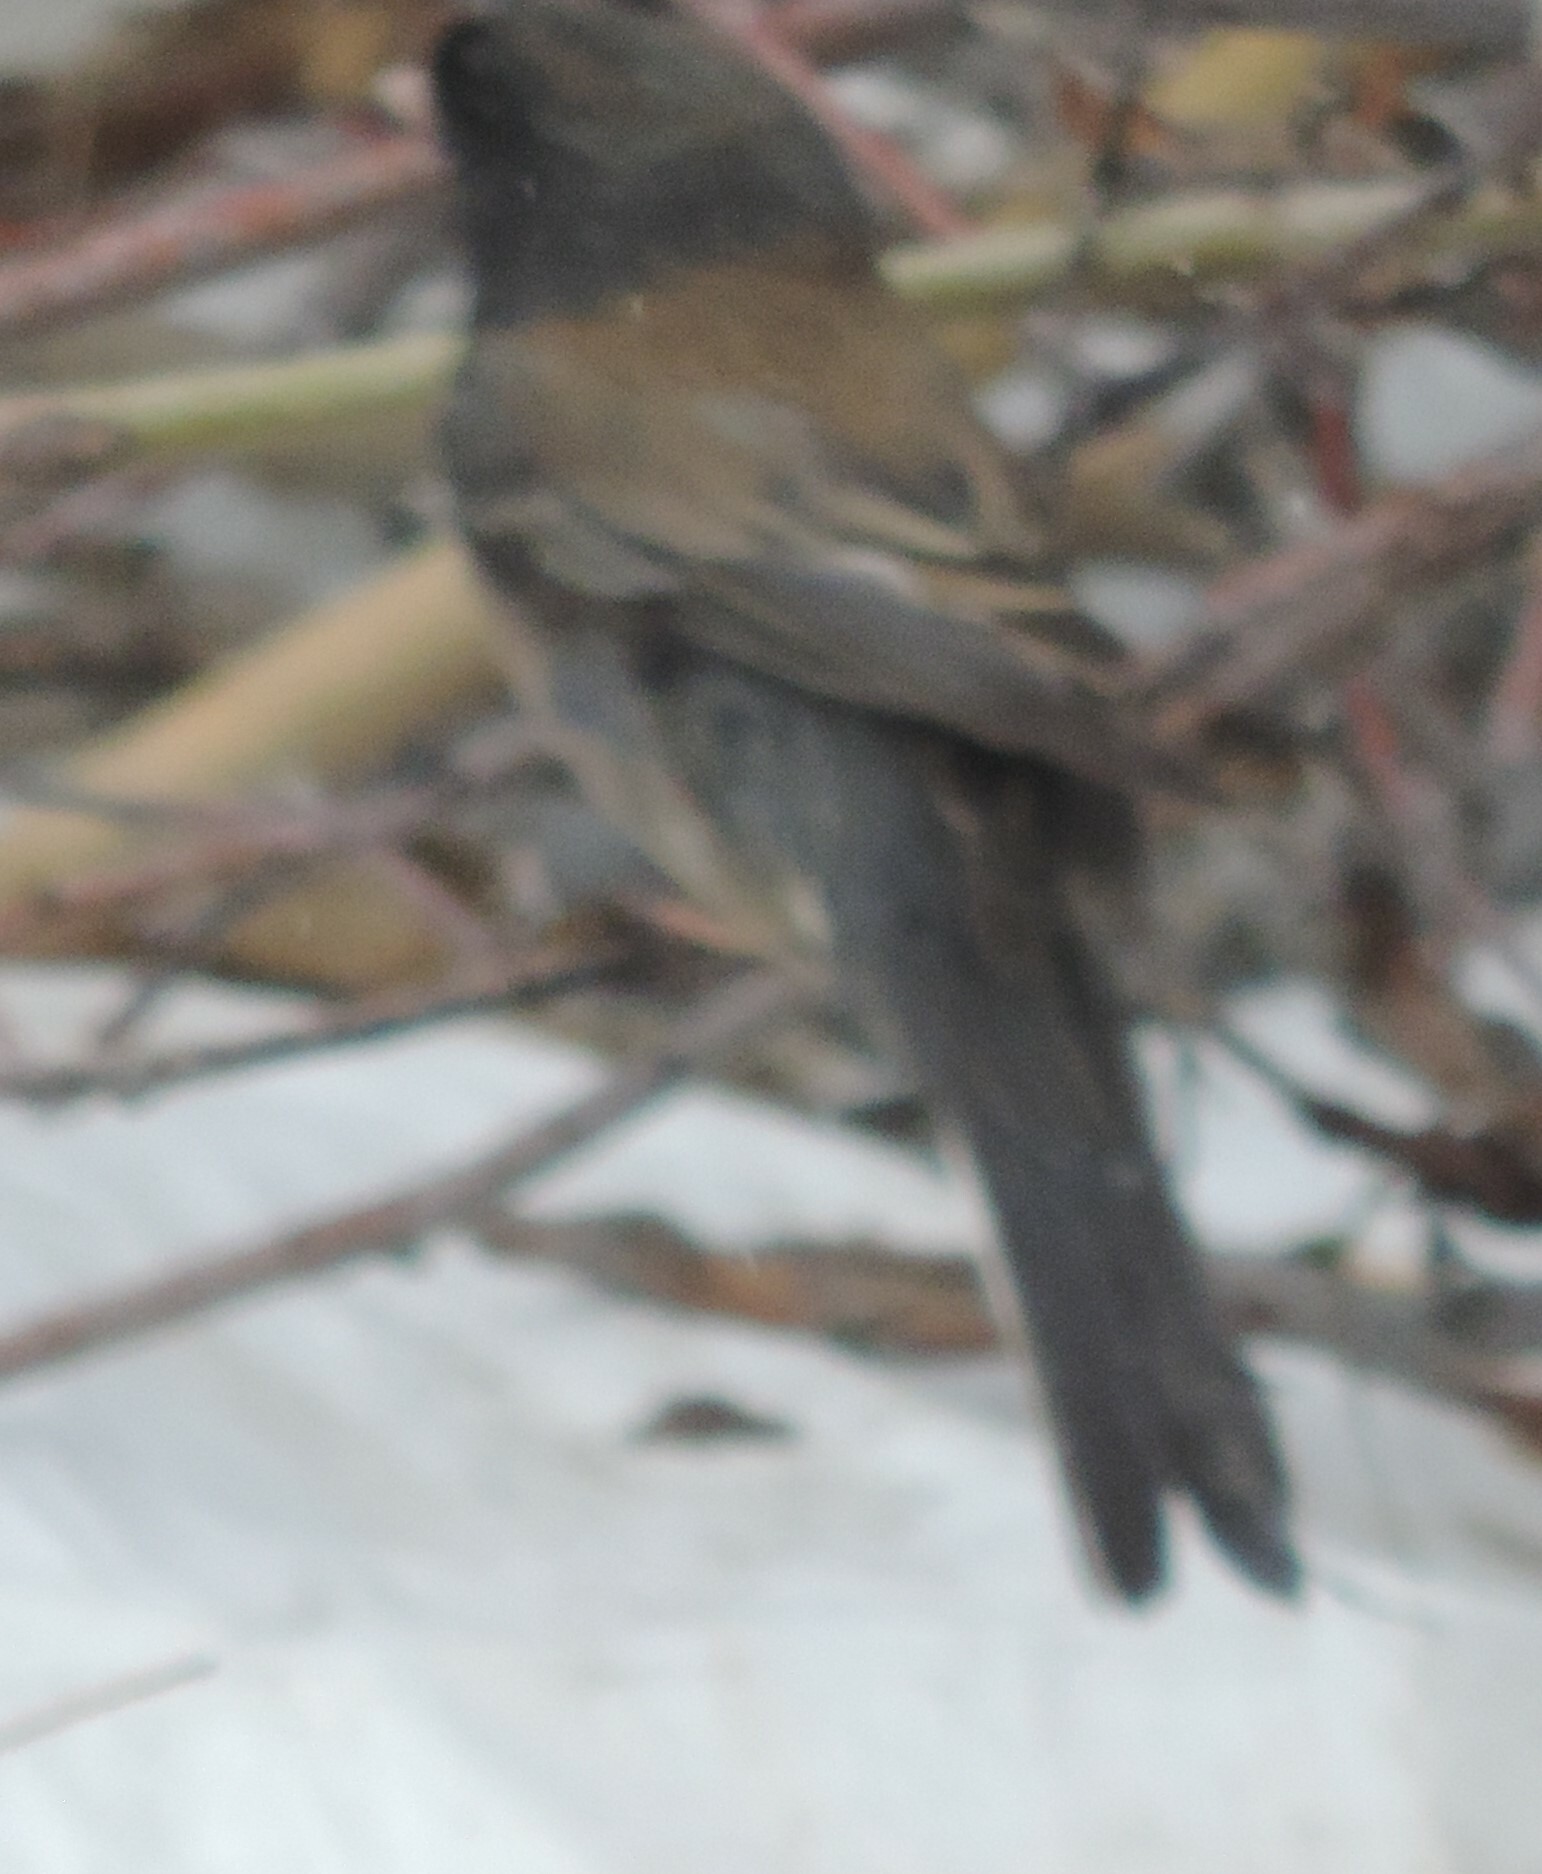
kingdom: Animalia
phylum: Chordata
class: Aves
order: Passeriformes
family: Passerellidae
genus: Junco
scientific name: Junco hyemalis
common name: Dark-eyed junco
